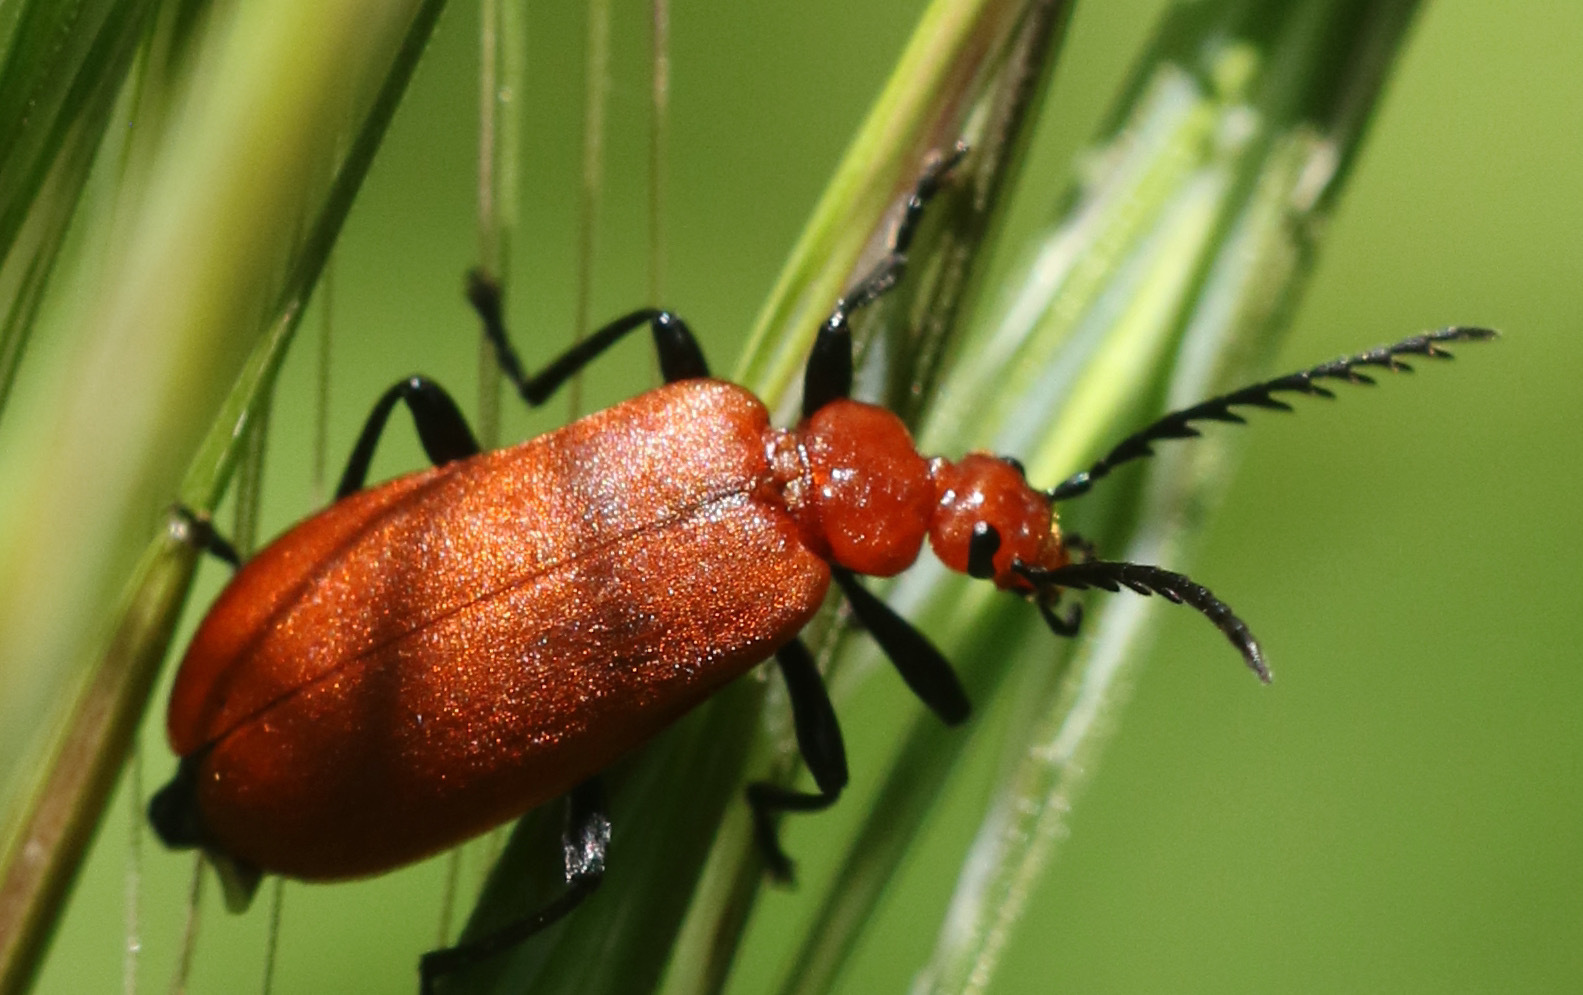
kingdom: Animalia
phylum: Arthropoda
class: Insecta
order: Coleoptera
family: Pyrochroidae
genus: Pyrochroa
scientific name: Pyrochroa serraticornis
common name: Red-headed cardinal beetle
